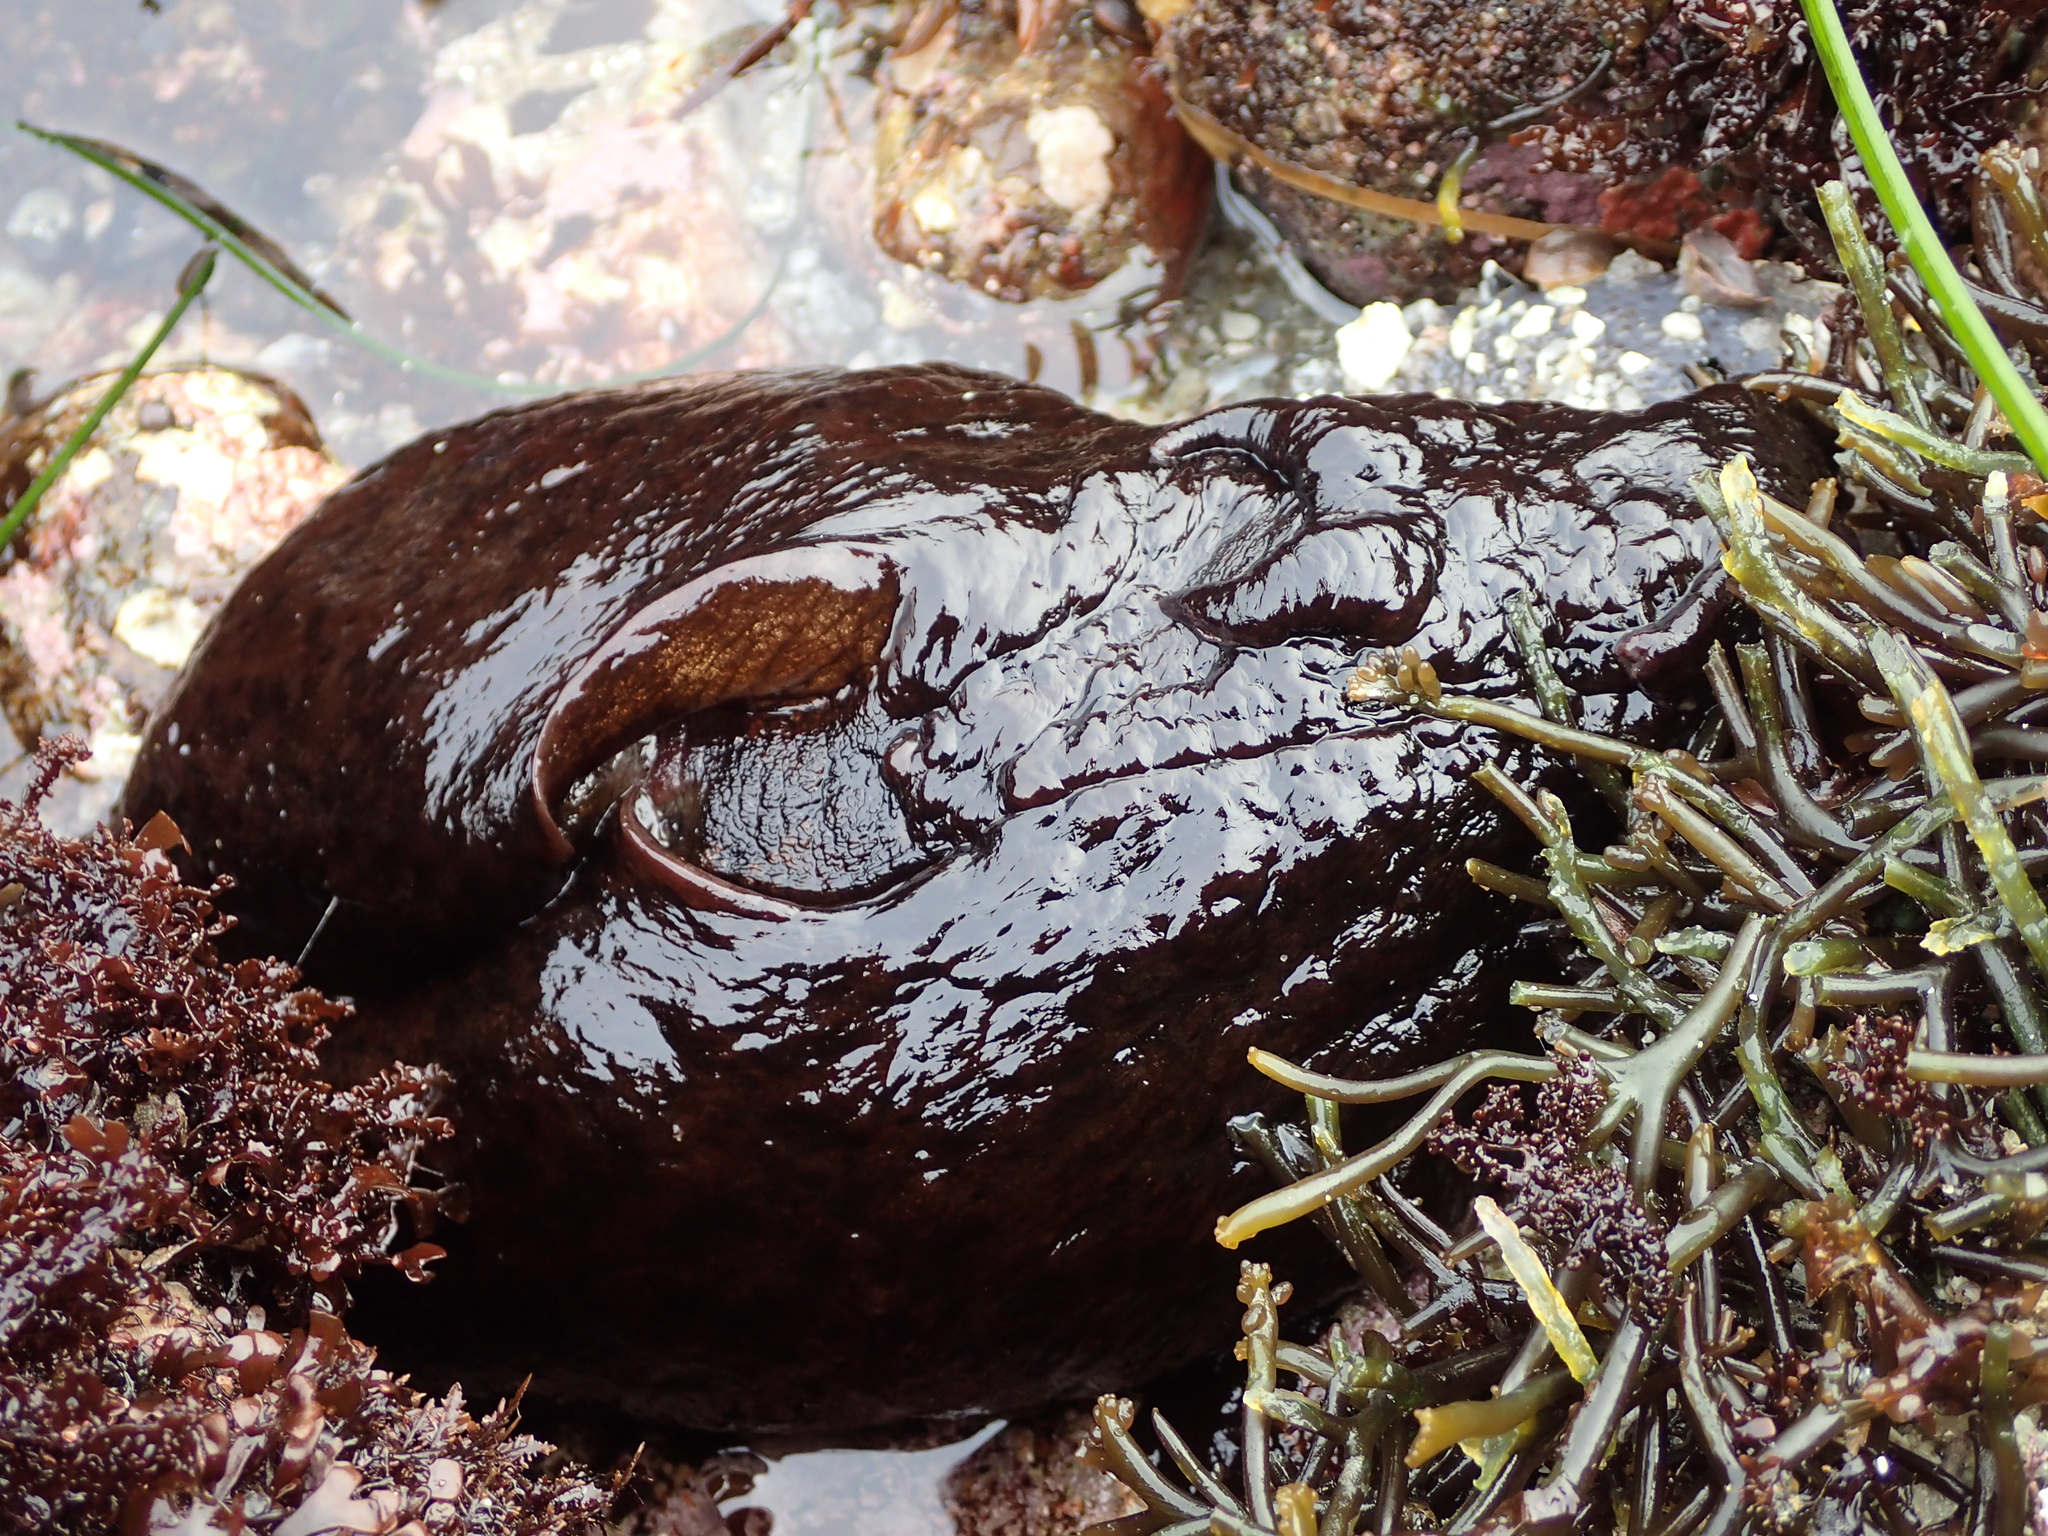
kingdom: Animalia
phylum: Mollusca
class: Gastropoda
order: Aplysiida
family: Aplysiidae
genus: Aplysia
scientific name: Aplysia californica
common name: California seahare
